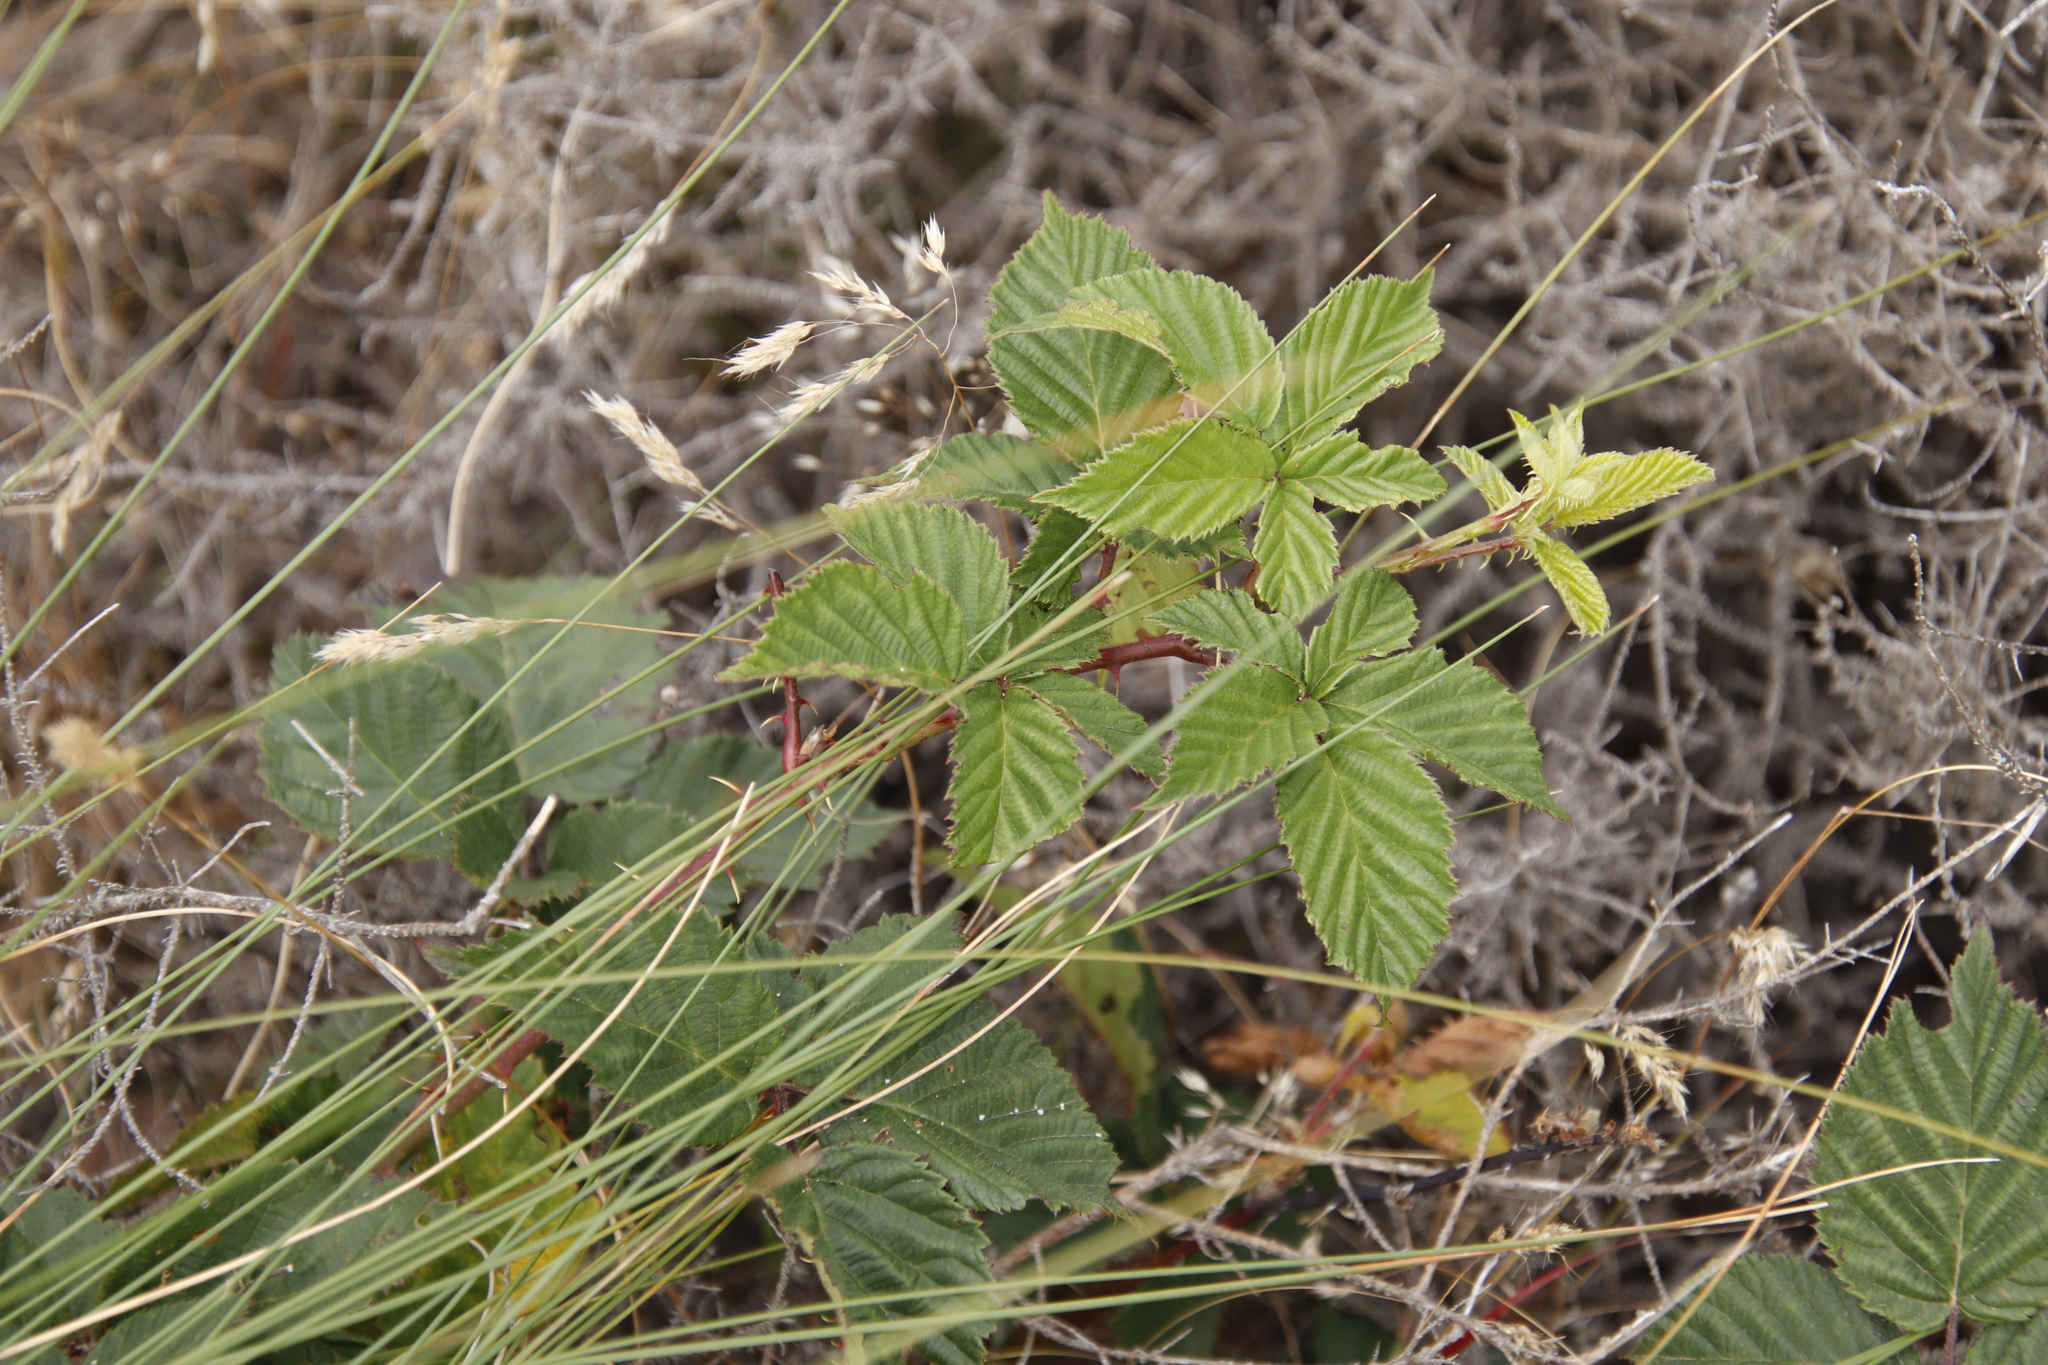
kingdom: Plantae
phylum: Tracheophyta
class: Magnoliopsida
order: Rosales
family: Rosaceae
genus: Rubus
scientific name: Rubus affinis
